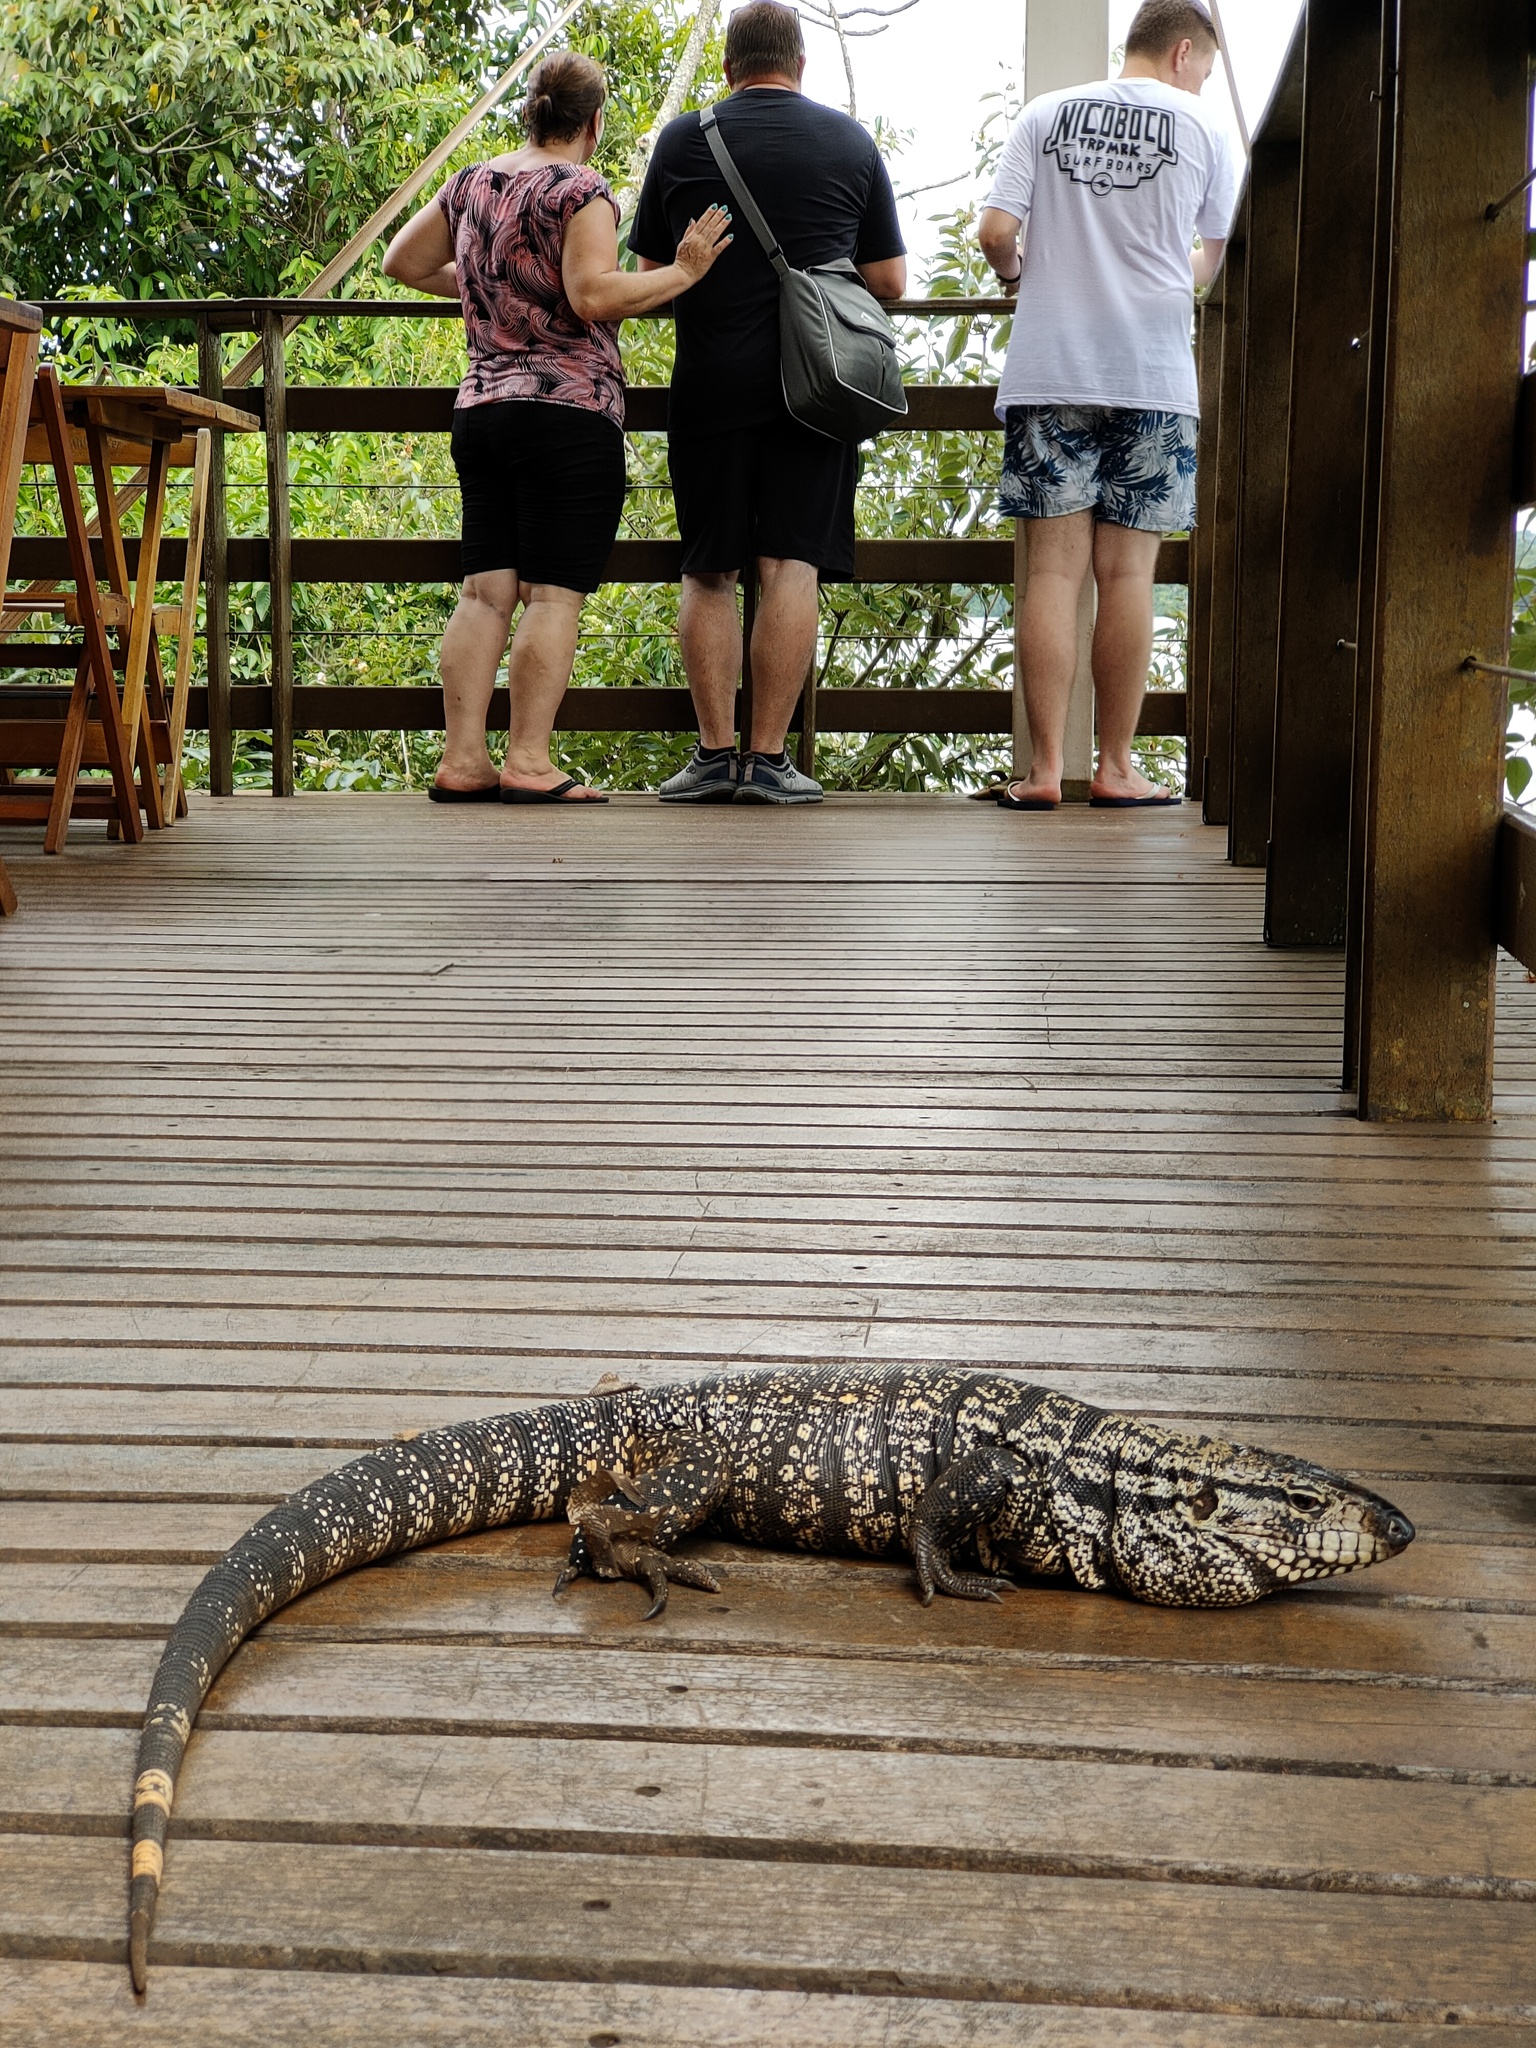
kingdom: Animalia
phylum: Chordata
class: Squamata
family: Teiidae
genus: Salvator
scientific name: Salvator merianae
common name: Argentine black and white tegu
